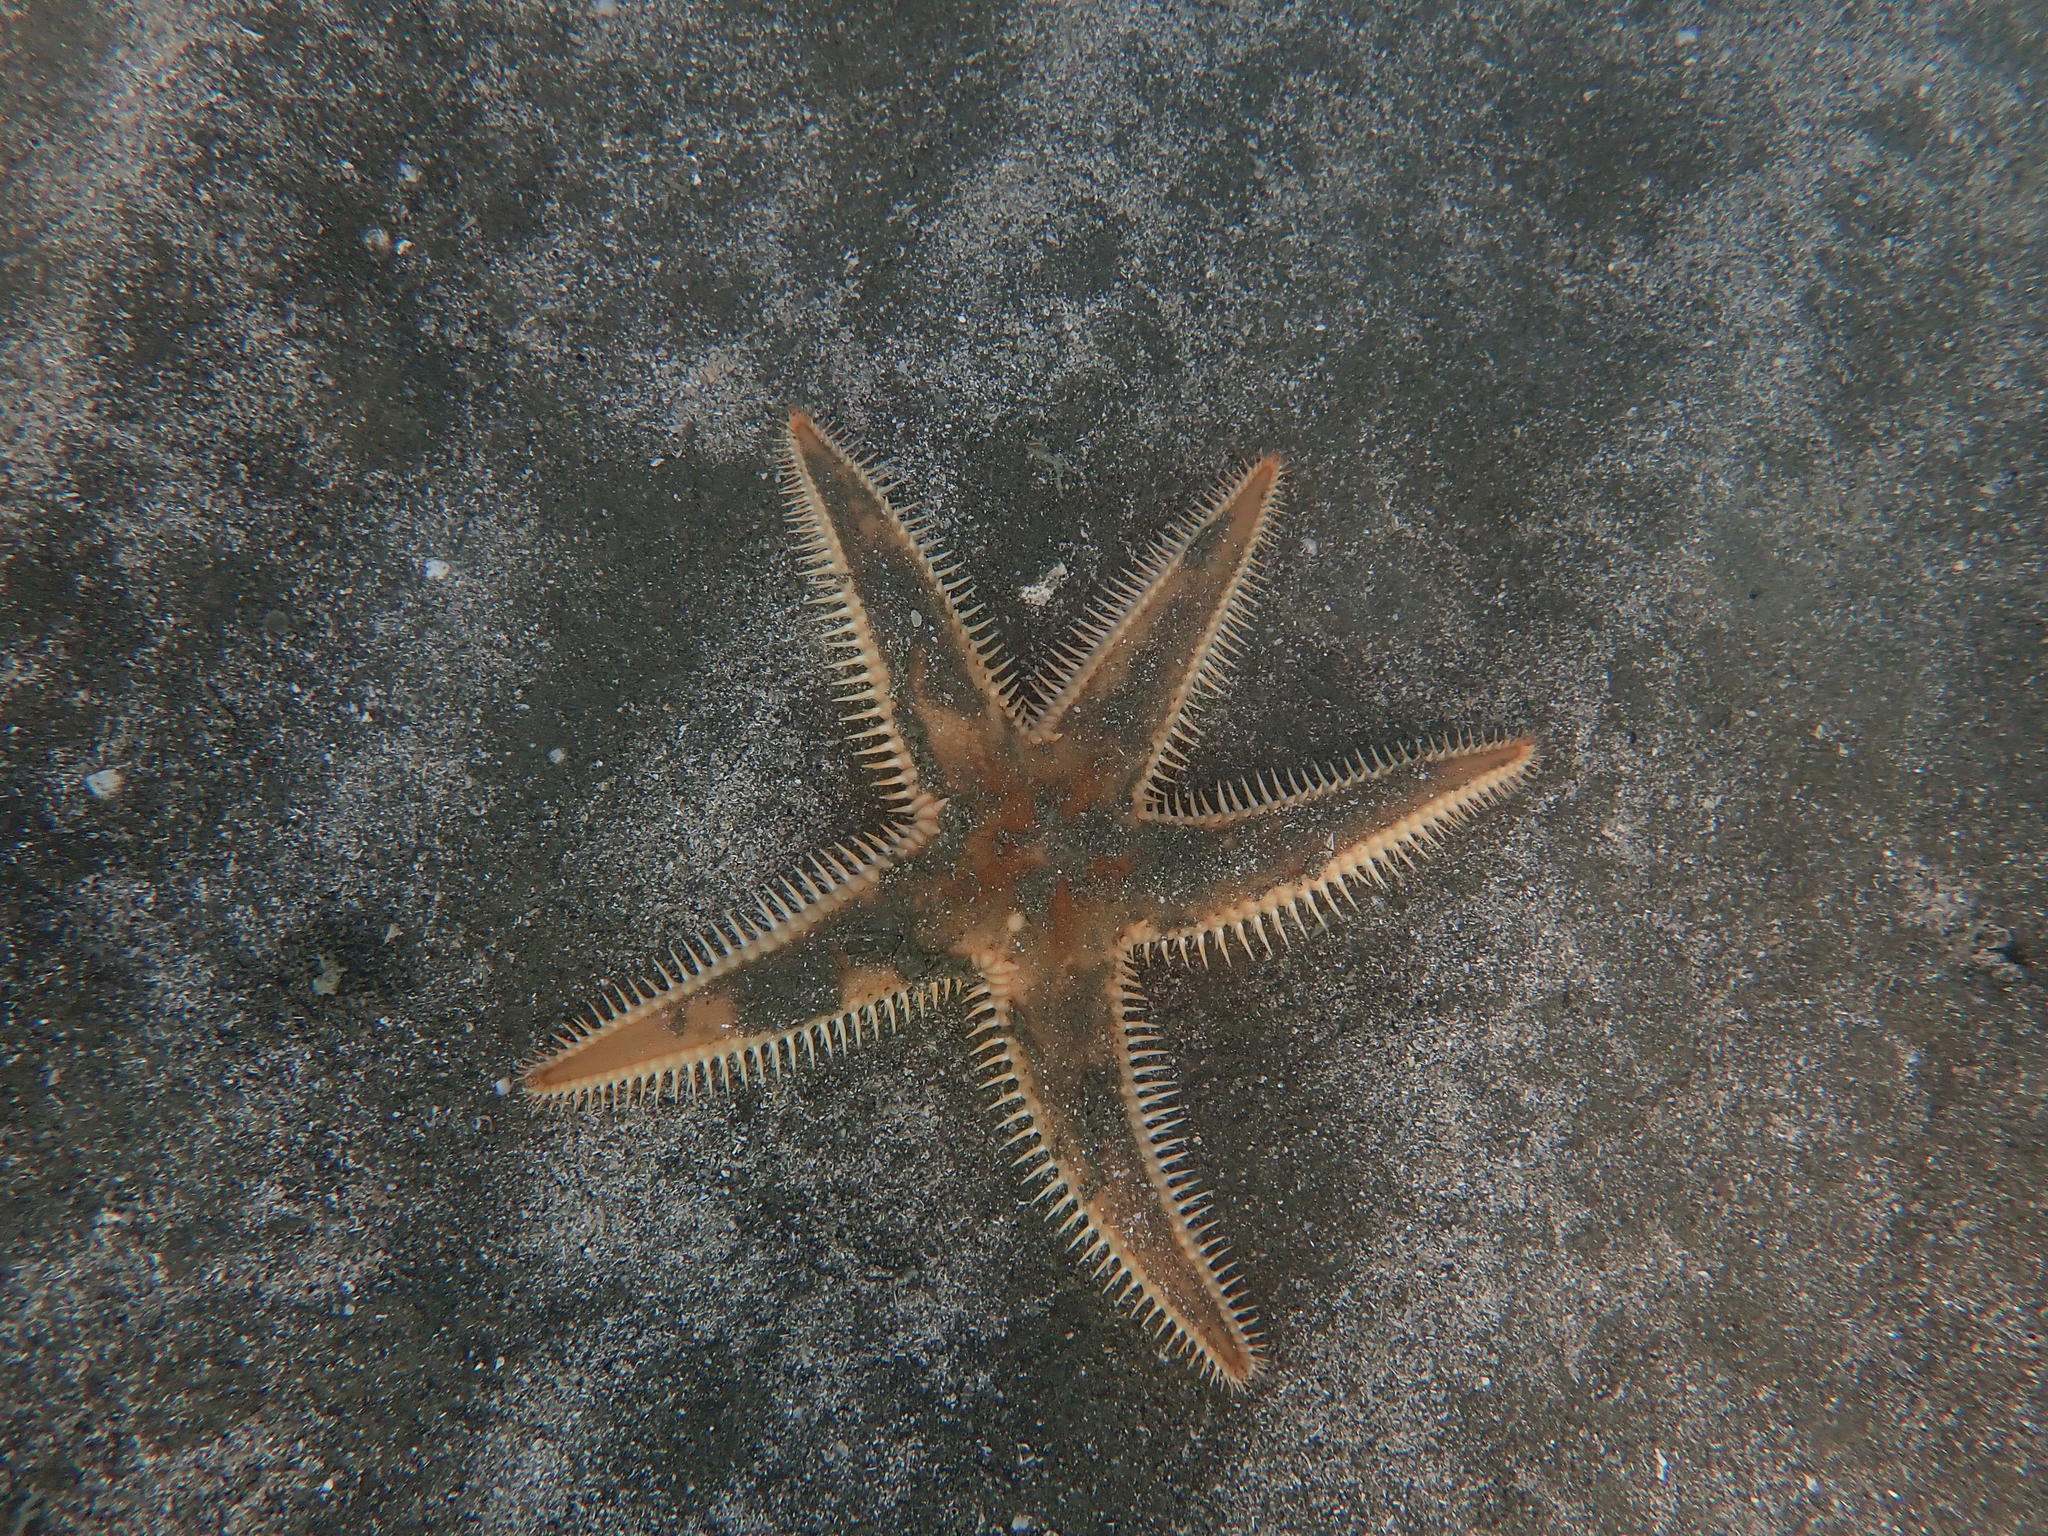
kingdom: Animalia
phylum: Echinodermata
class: Asteroidea
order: Paxillosida
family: Astropectinidae
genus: Astropecten
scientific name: Astropecten polyacanthus
